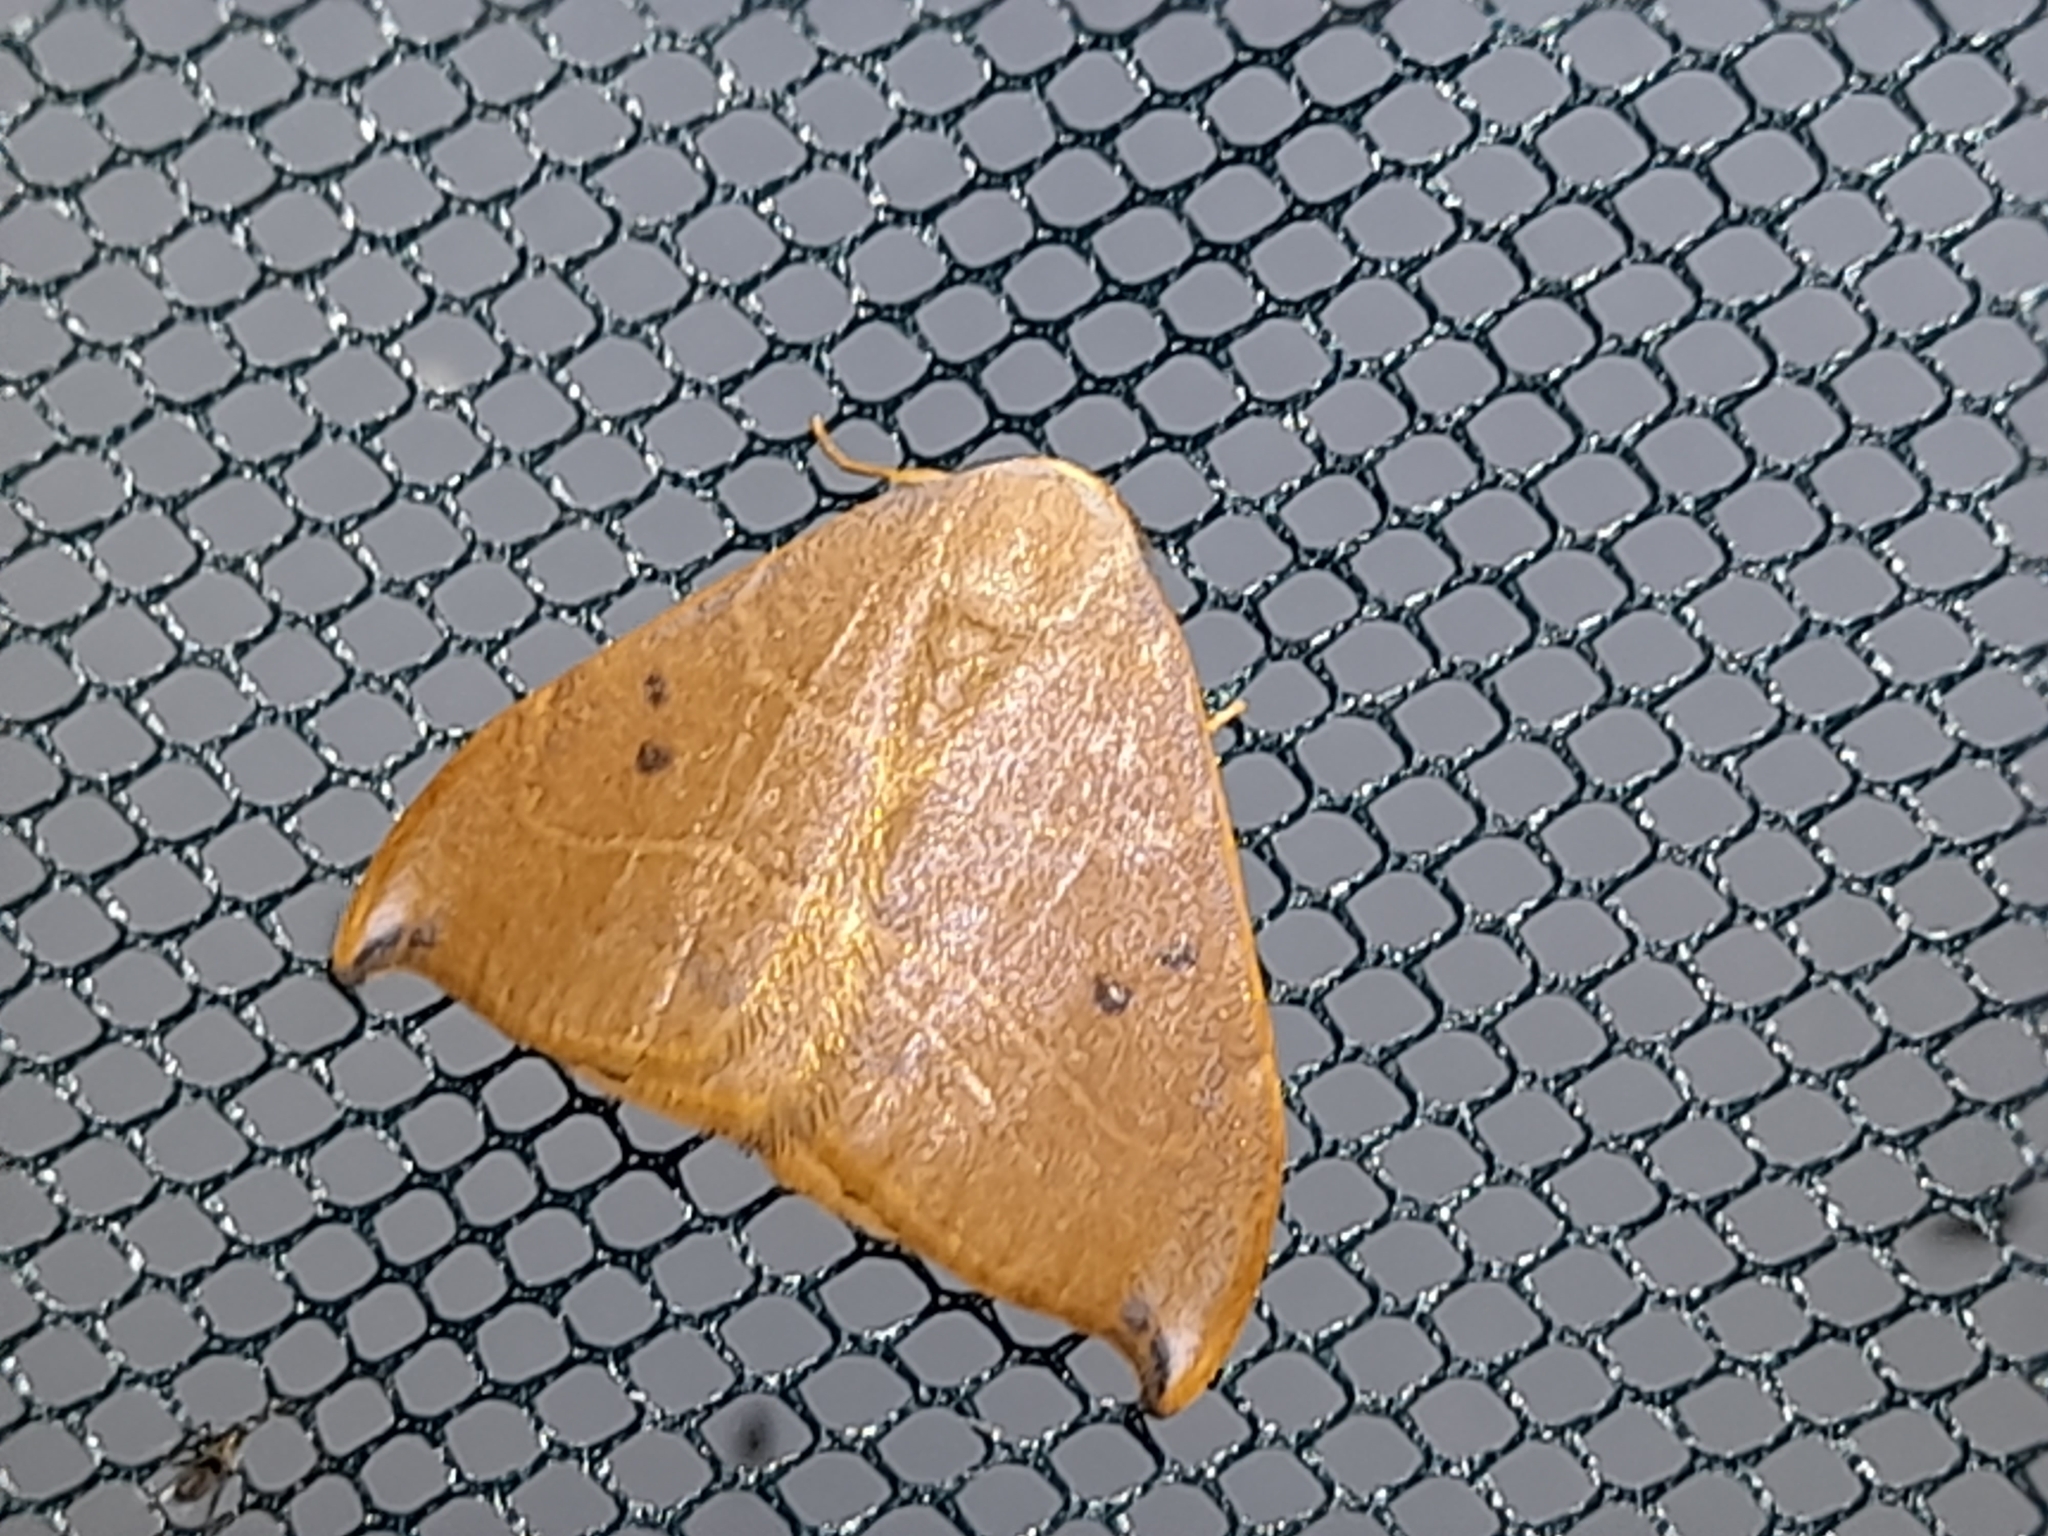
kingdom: Animalia
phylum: Arthropoda
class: Insecta
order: Lepidoptera
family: Drepanidae
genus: Watsonalla
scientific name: Watsonalla binaria
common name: Oak hook-tip
